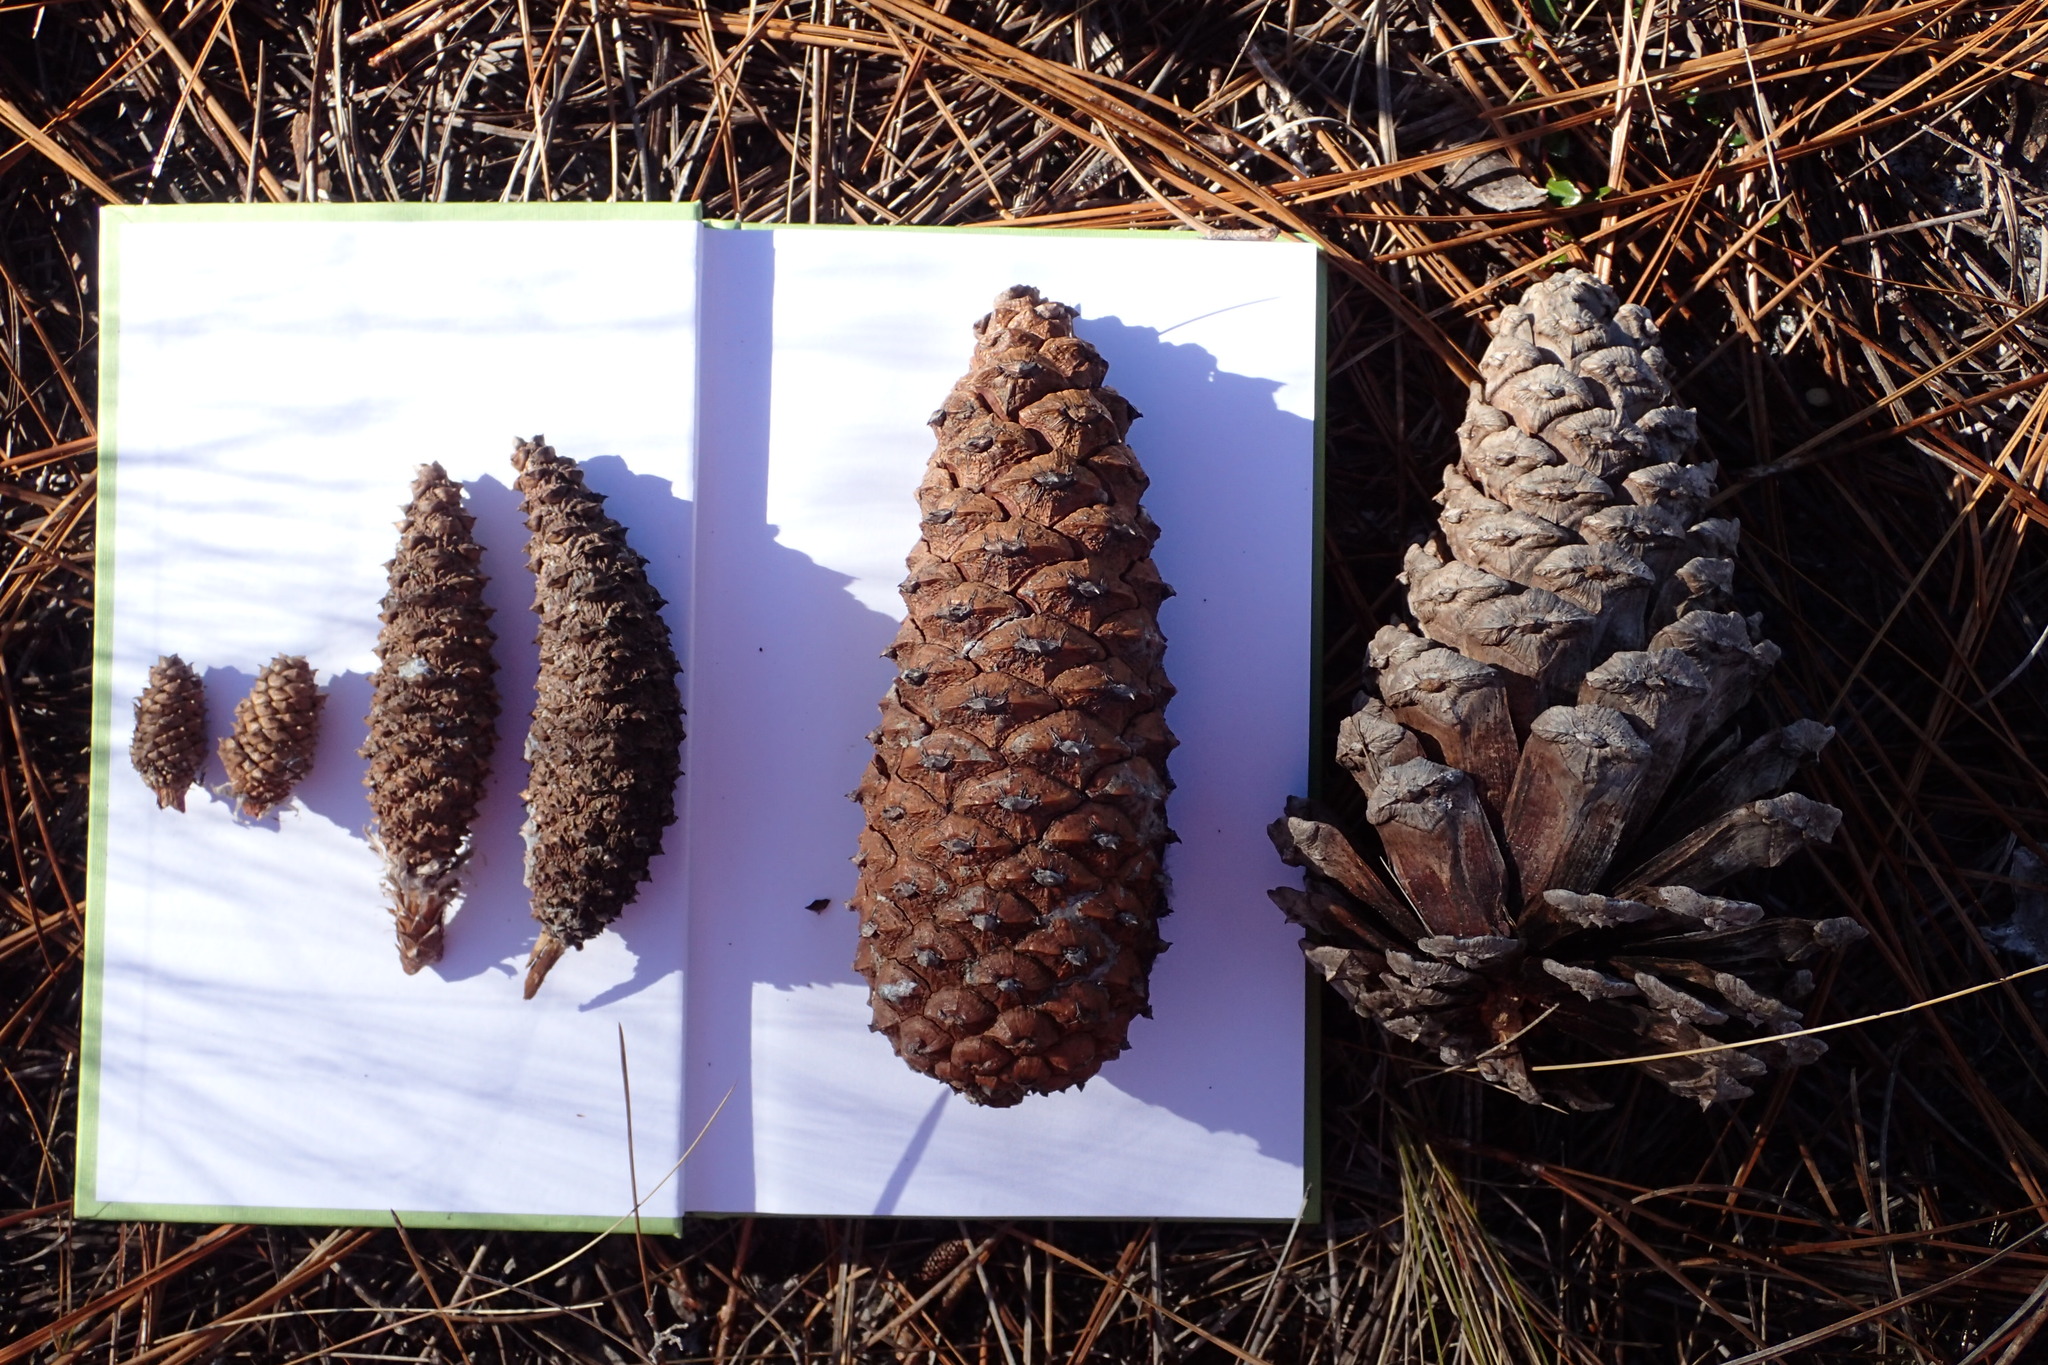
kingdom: Plantae
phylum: Tracheophyta
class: Pinopsida
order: Pinales
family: Pinaceae
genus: Pinus
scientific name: Pinus palustris
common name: Longleaf pine
